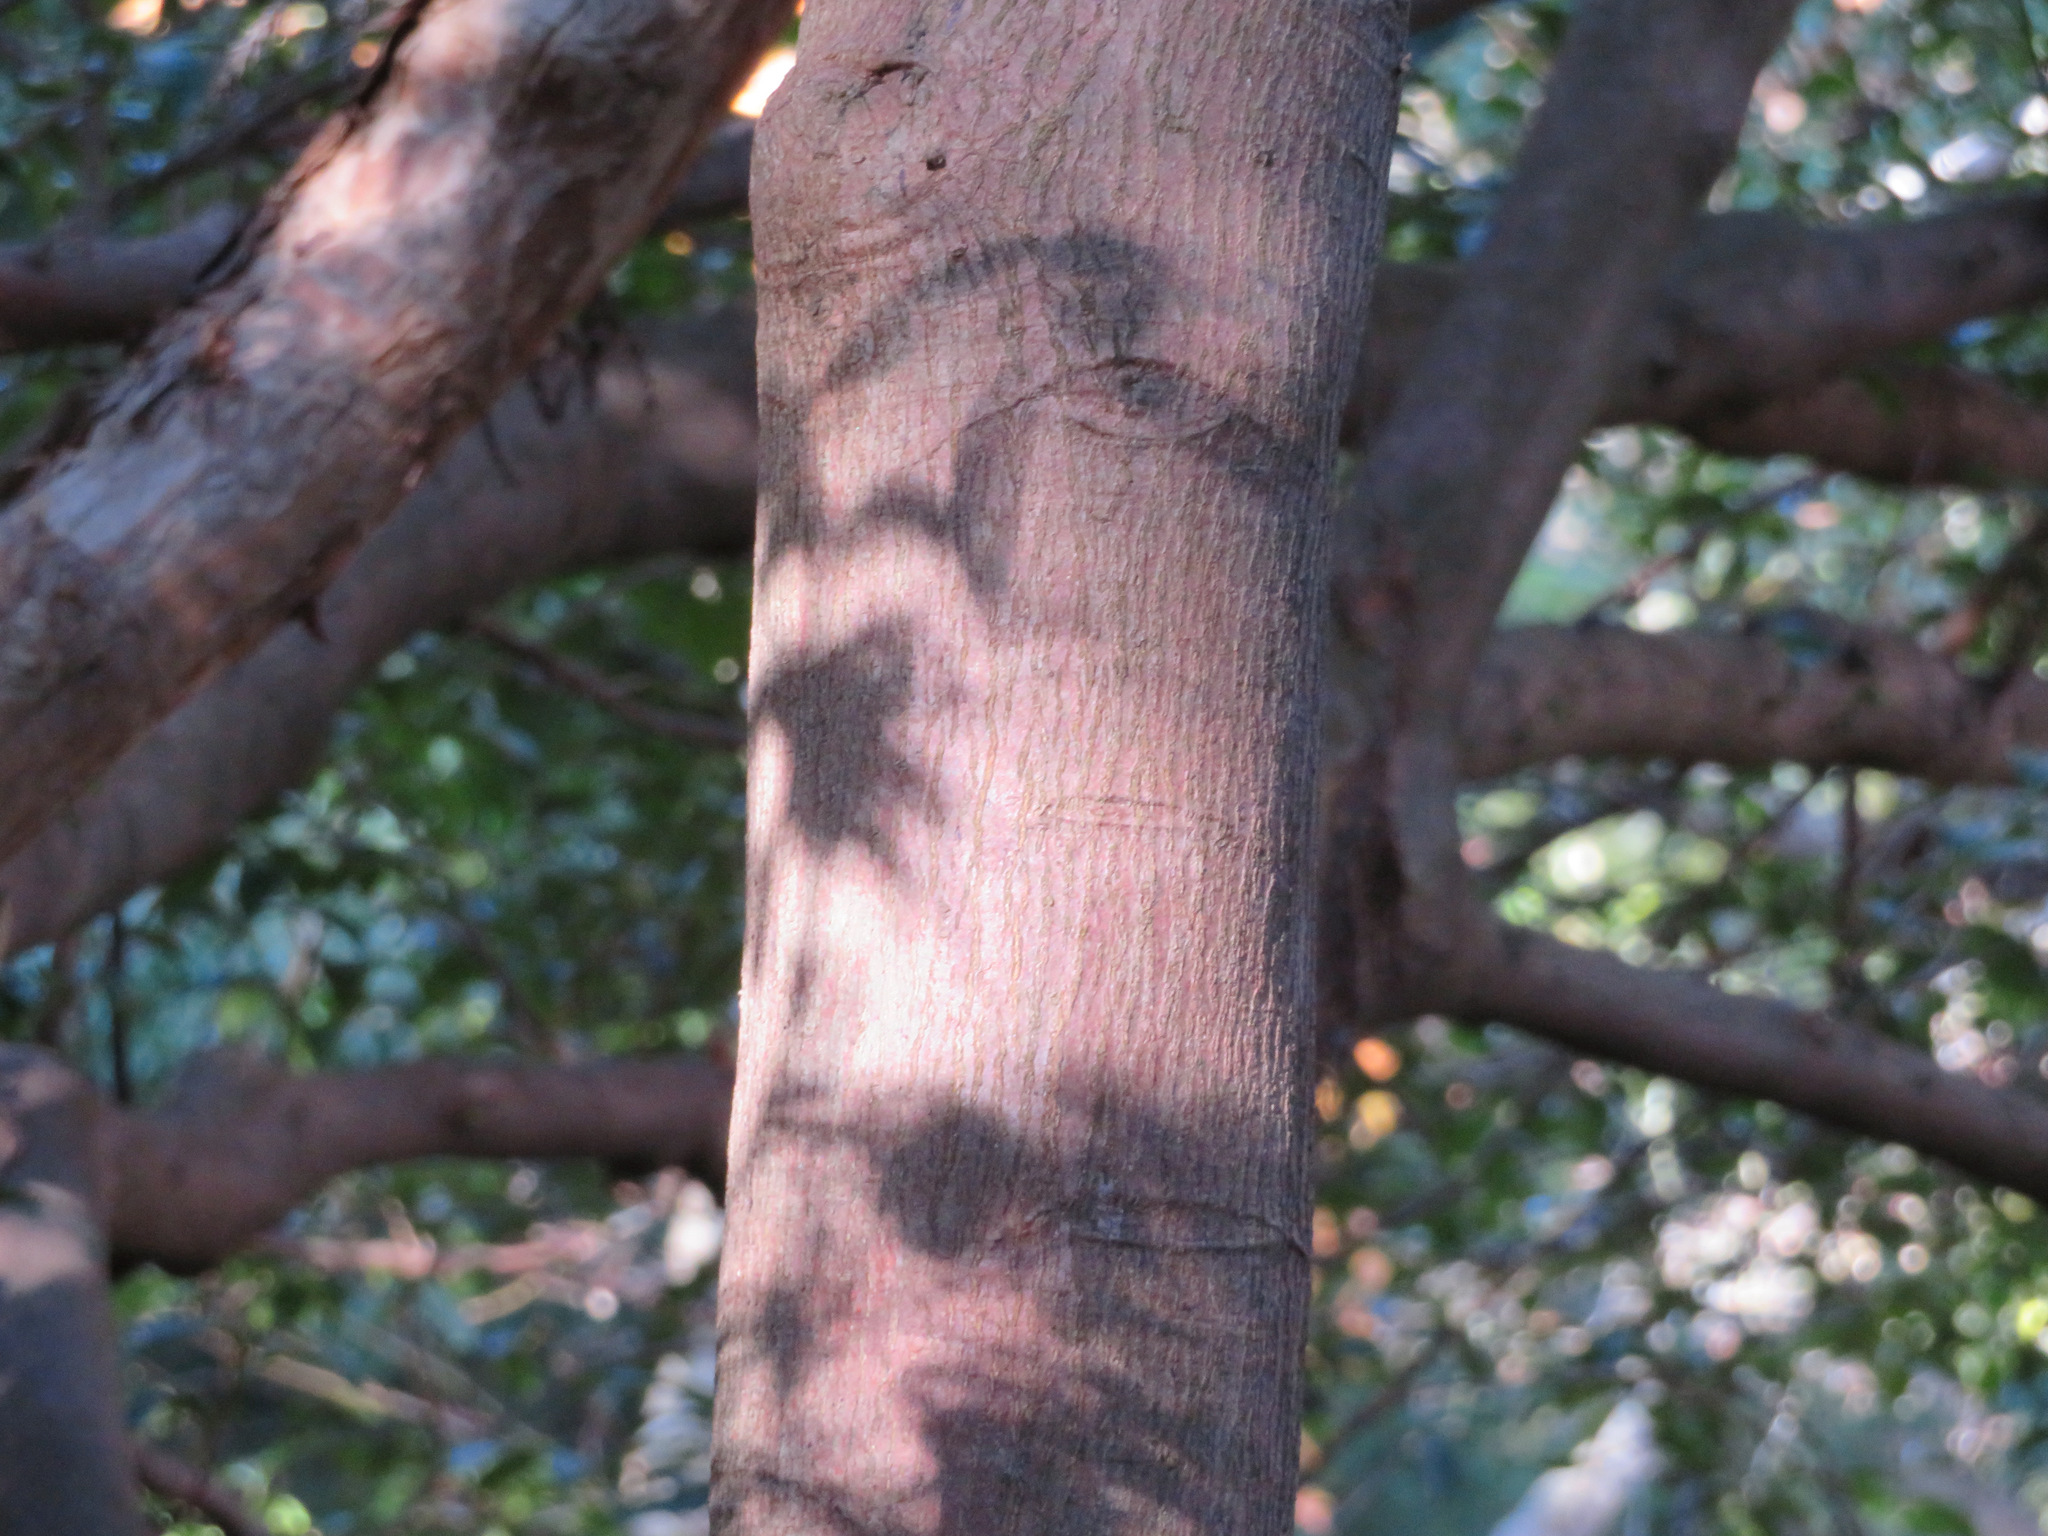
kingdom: Plantae
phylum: Tracheophyta
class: Magnoliopsida
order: Ericales
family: Pentaphylacaceae
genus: Eurya
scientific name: Eurya japonica
